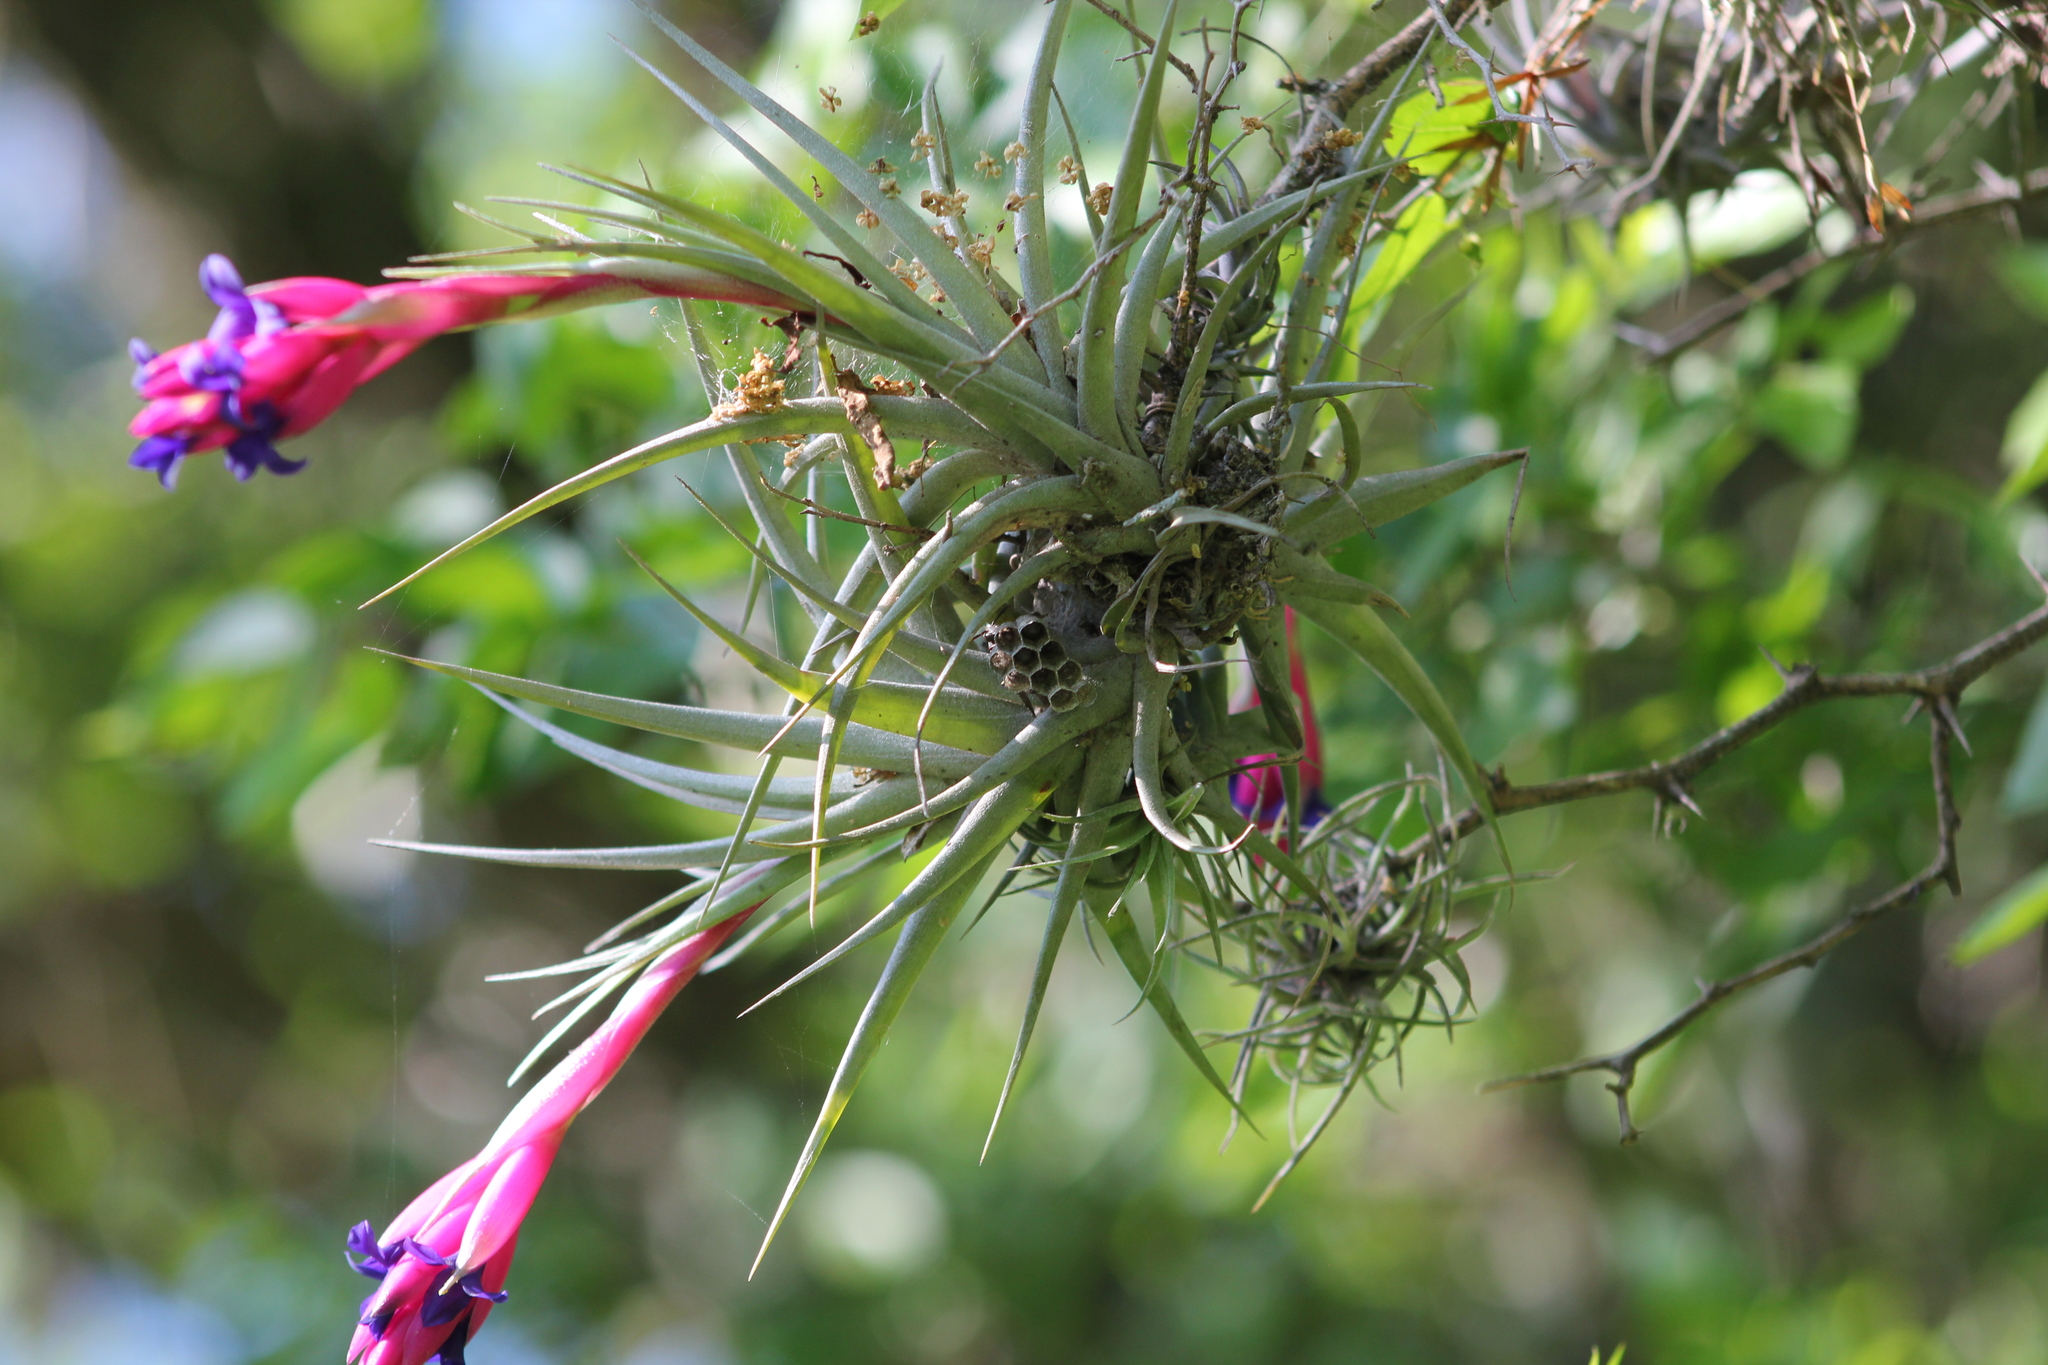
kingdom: Plantae
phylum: Tracheophyta
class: Liliopsida
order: Poales
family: Bromeliaceae
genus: Tillandsia
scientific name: Tillandsia aeranthos
